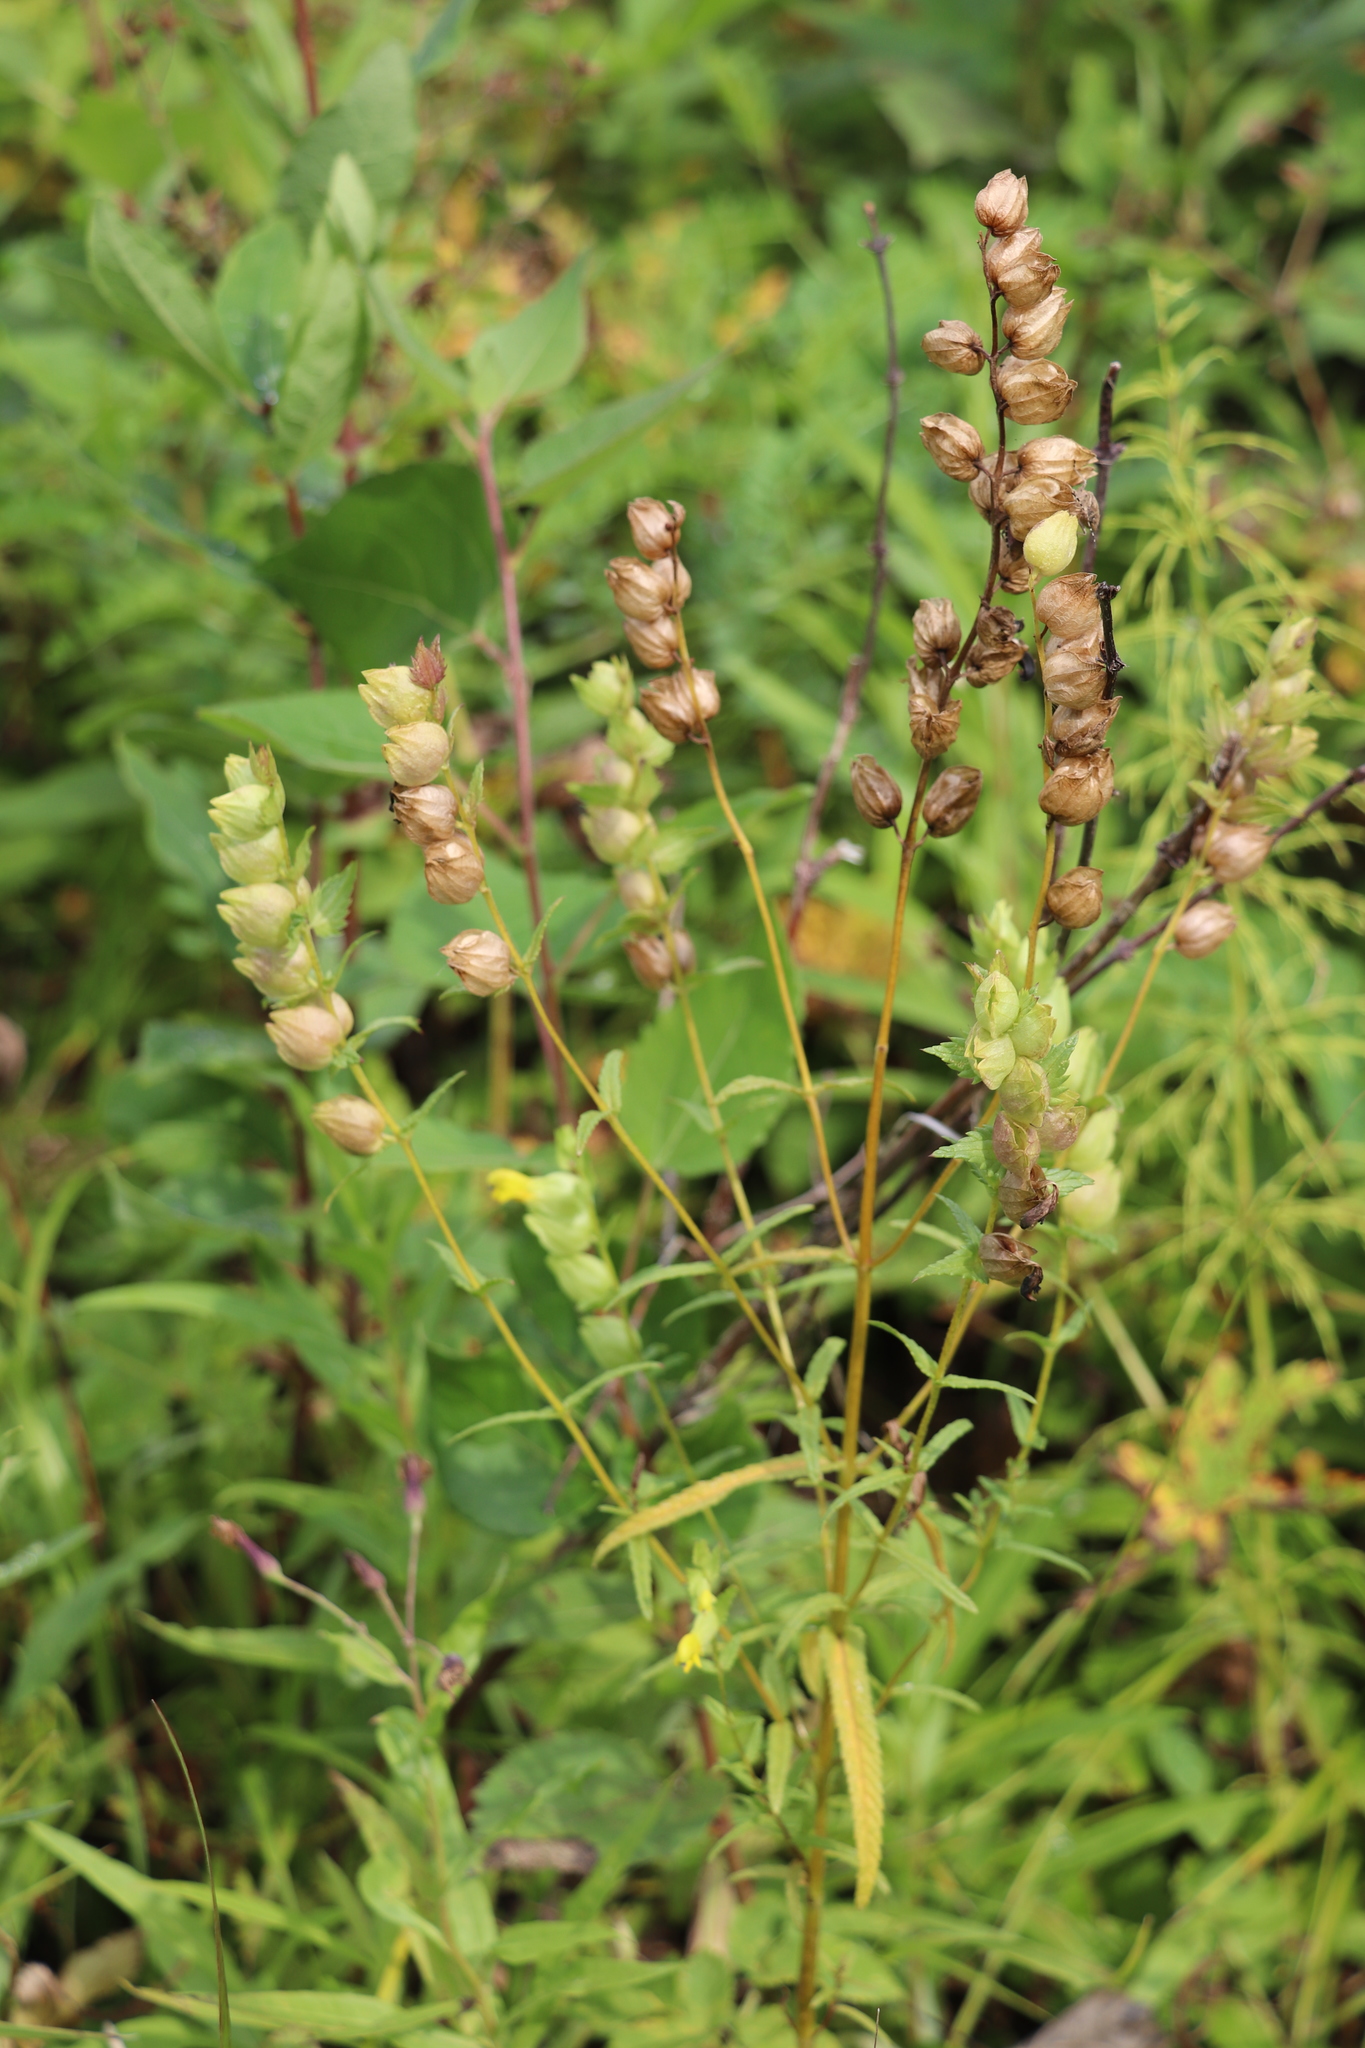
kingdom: Plantae
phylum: Tracheophyta
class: Magnoliopsida
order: Lamiales
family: Orobanchaceae
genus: Rhinanthus
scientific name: Rhinanthus serotinus
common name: Late-flowering yellow rattle
